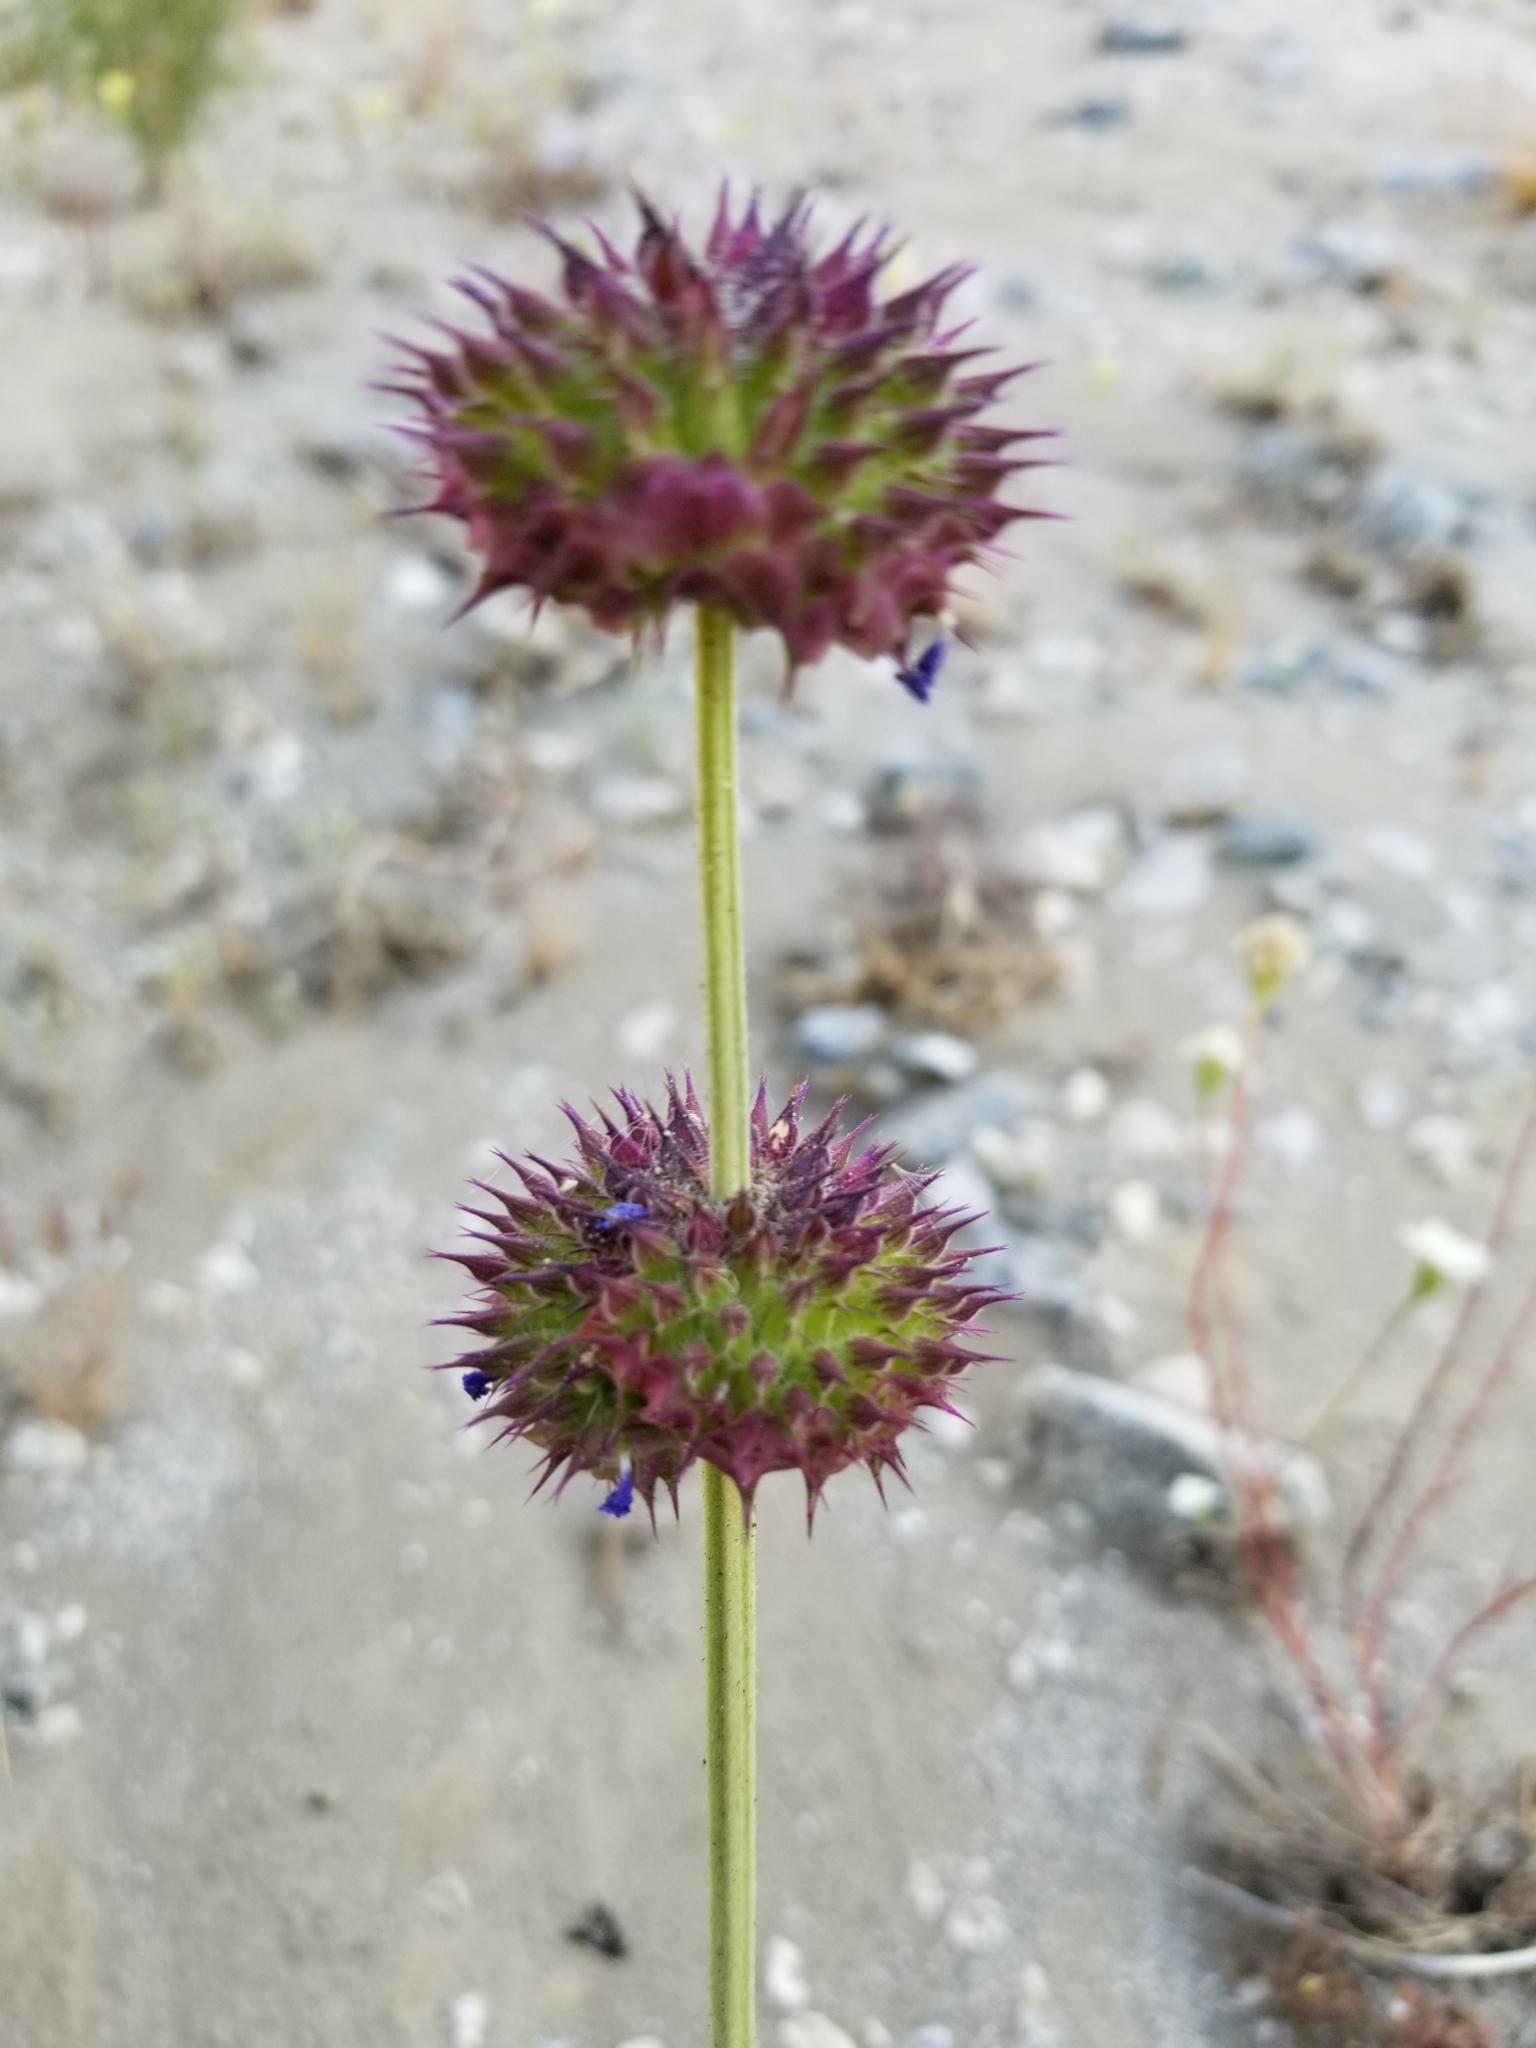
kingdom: Plantae
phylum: Tracheophyta
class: Magnoliopsida
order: Lamiales
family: Lamiaceae
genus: Salvia
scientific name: Salvia columbariae
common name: Chia
